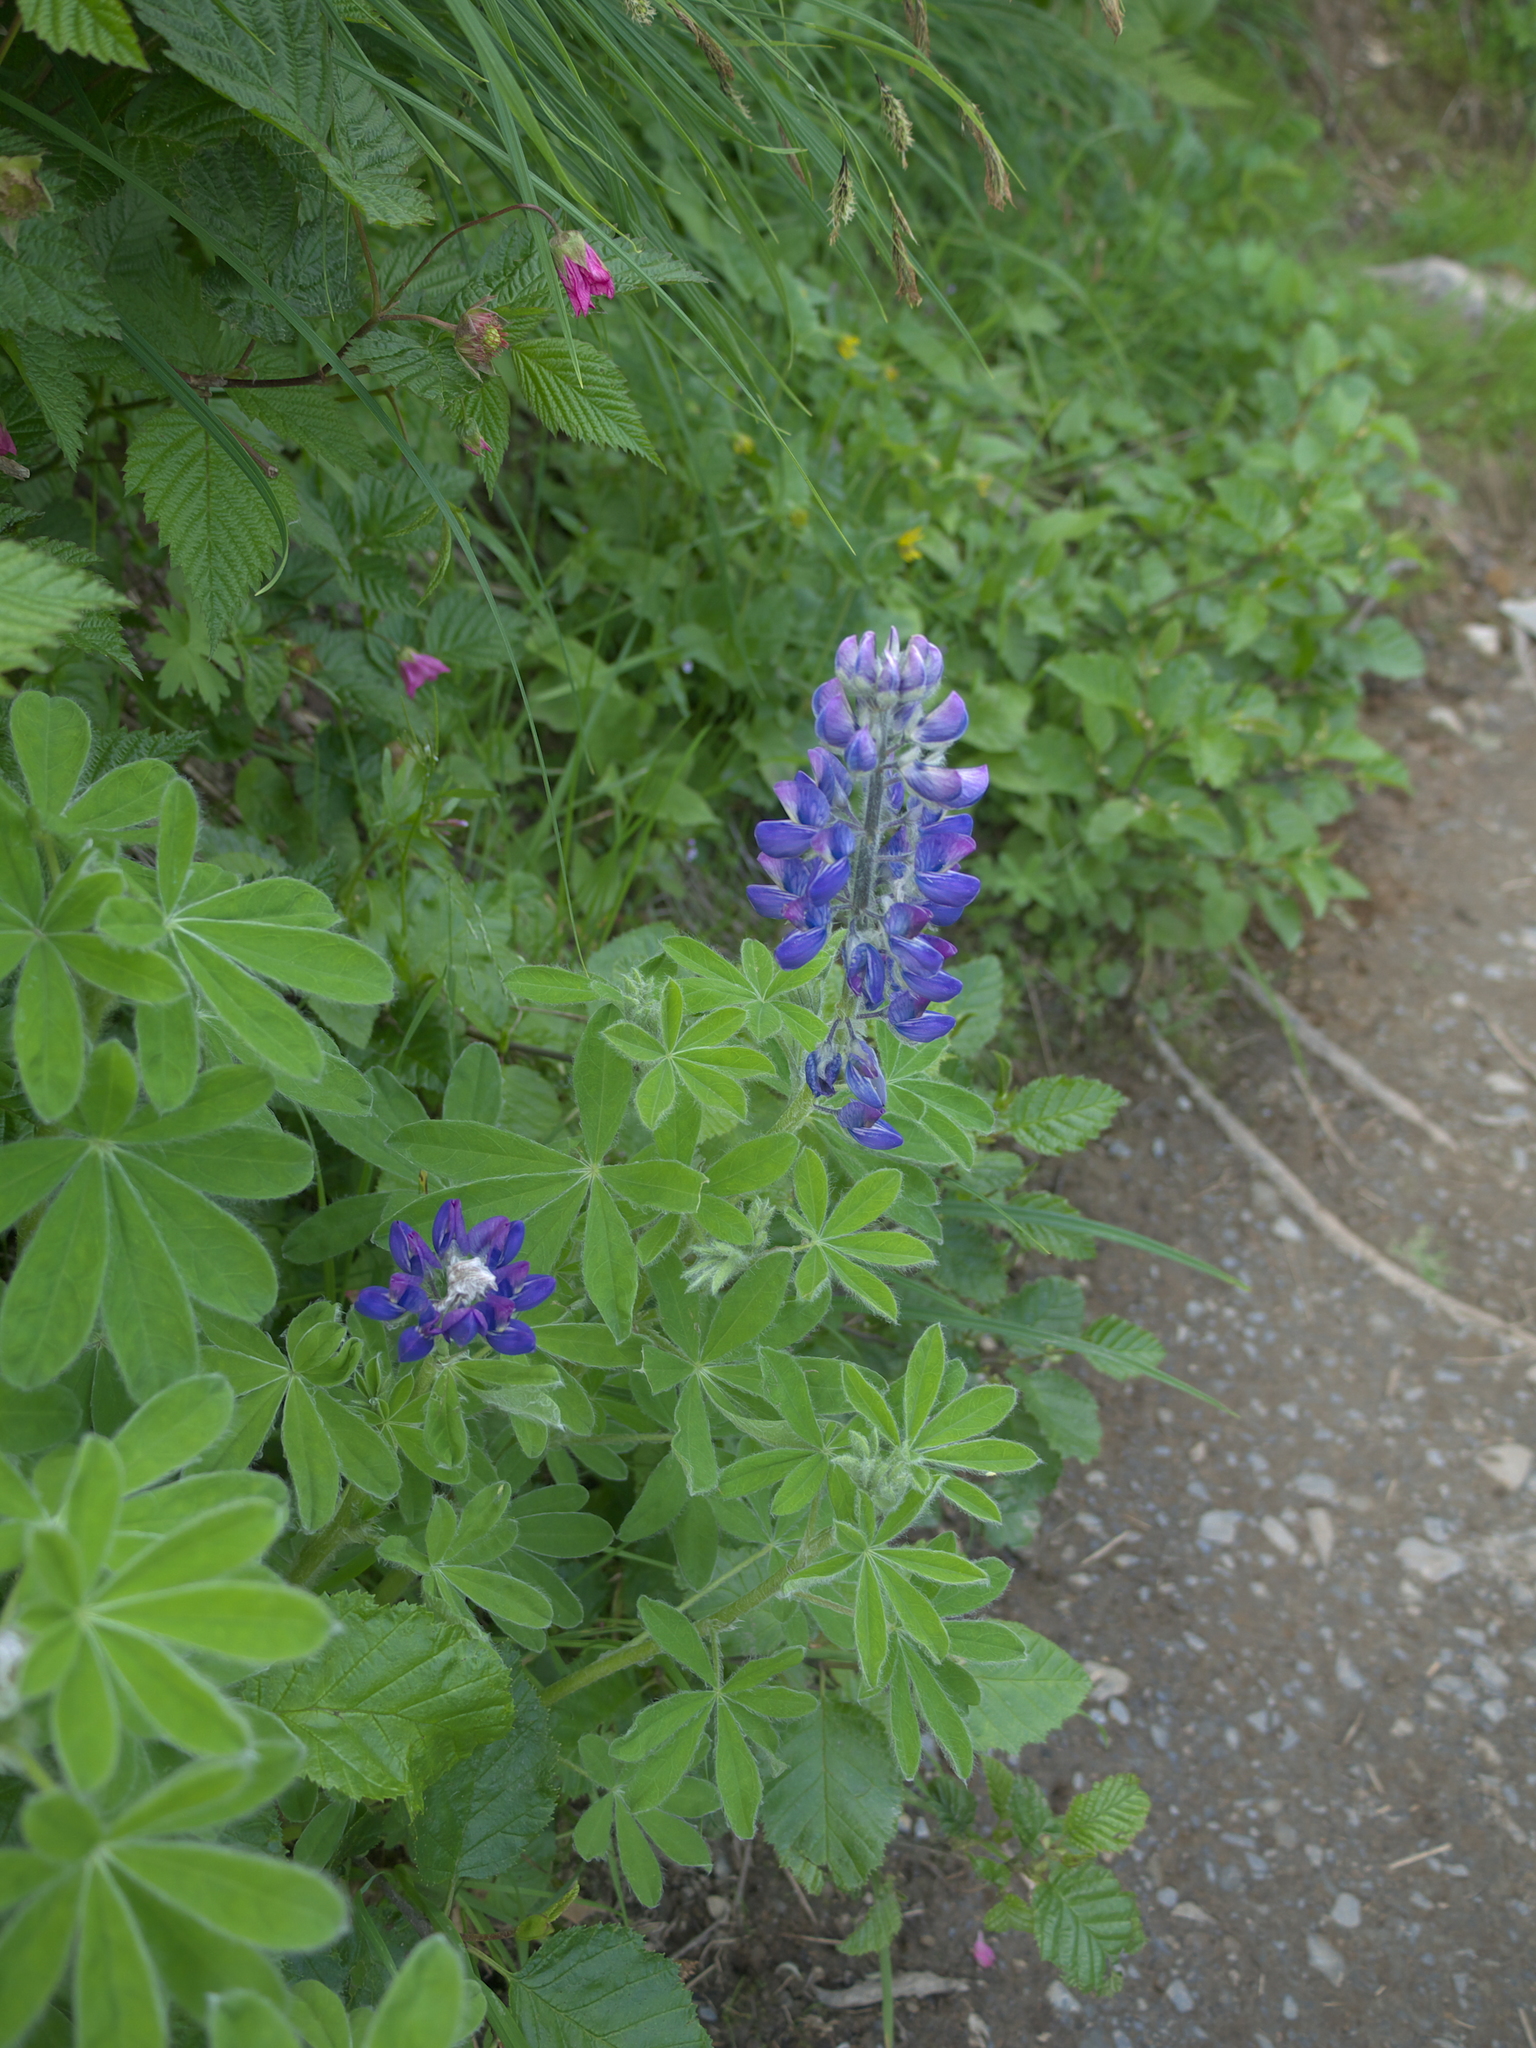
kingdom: Plantae
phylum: Tracheophyta
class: Magnoliopsida
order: Fabales
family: Fabaceae
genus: Lupinus
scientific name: Lupinus nootkatensis
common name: Nootka lupine
